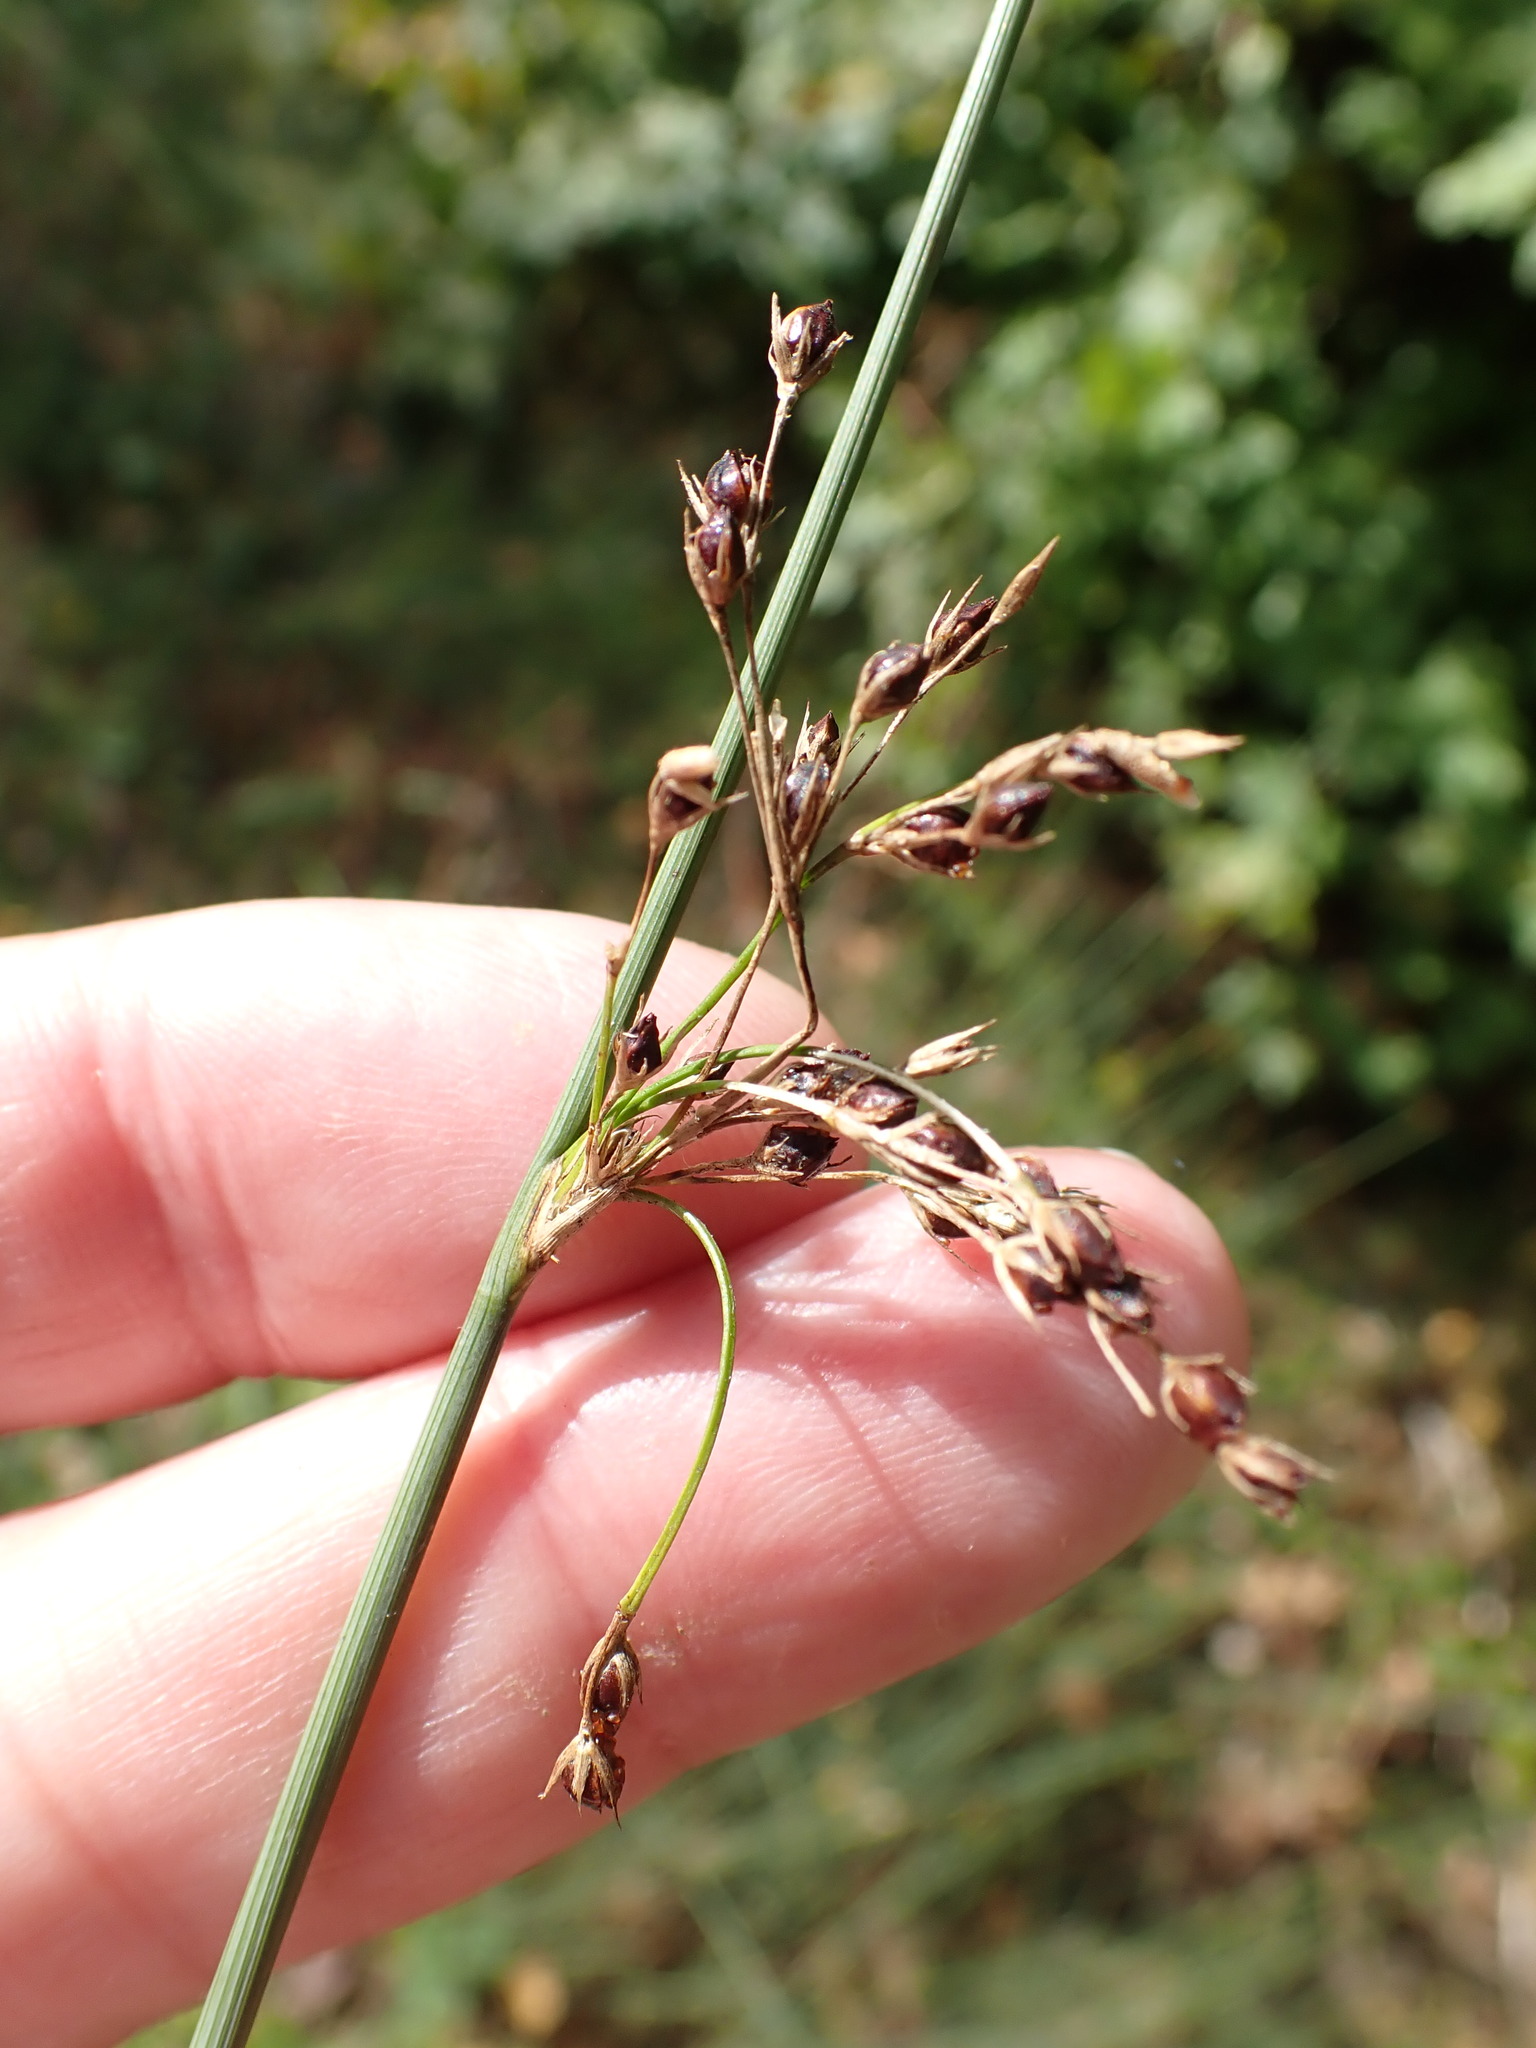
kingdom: Plantae
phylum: Tracheophyta
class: Liliopsida
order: Poales
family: Juncaceae
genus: Juncus
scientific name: Juncus inflexus
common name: Hard rush
